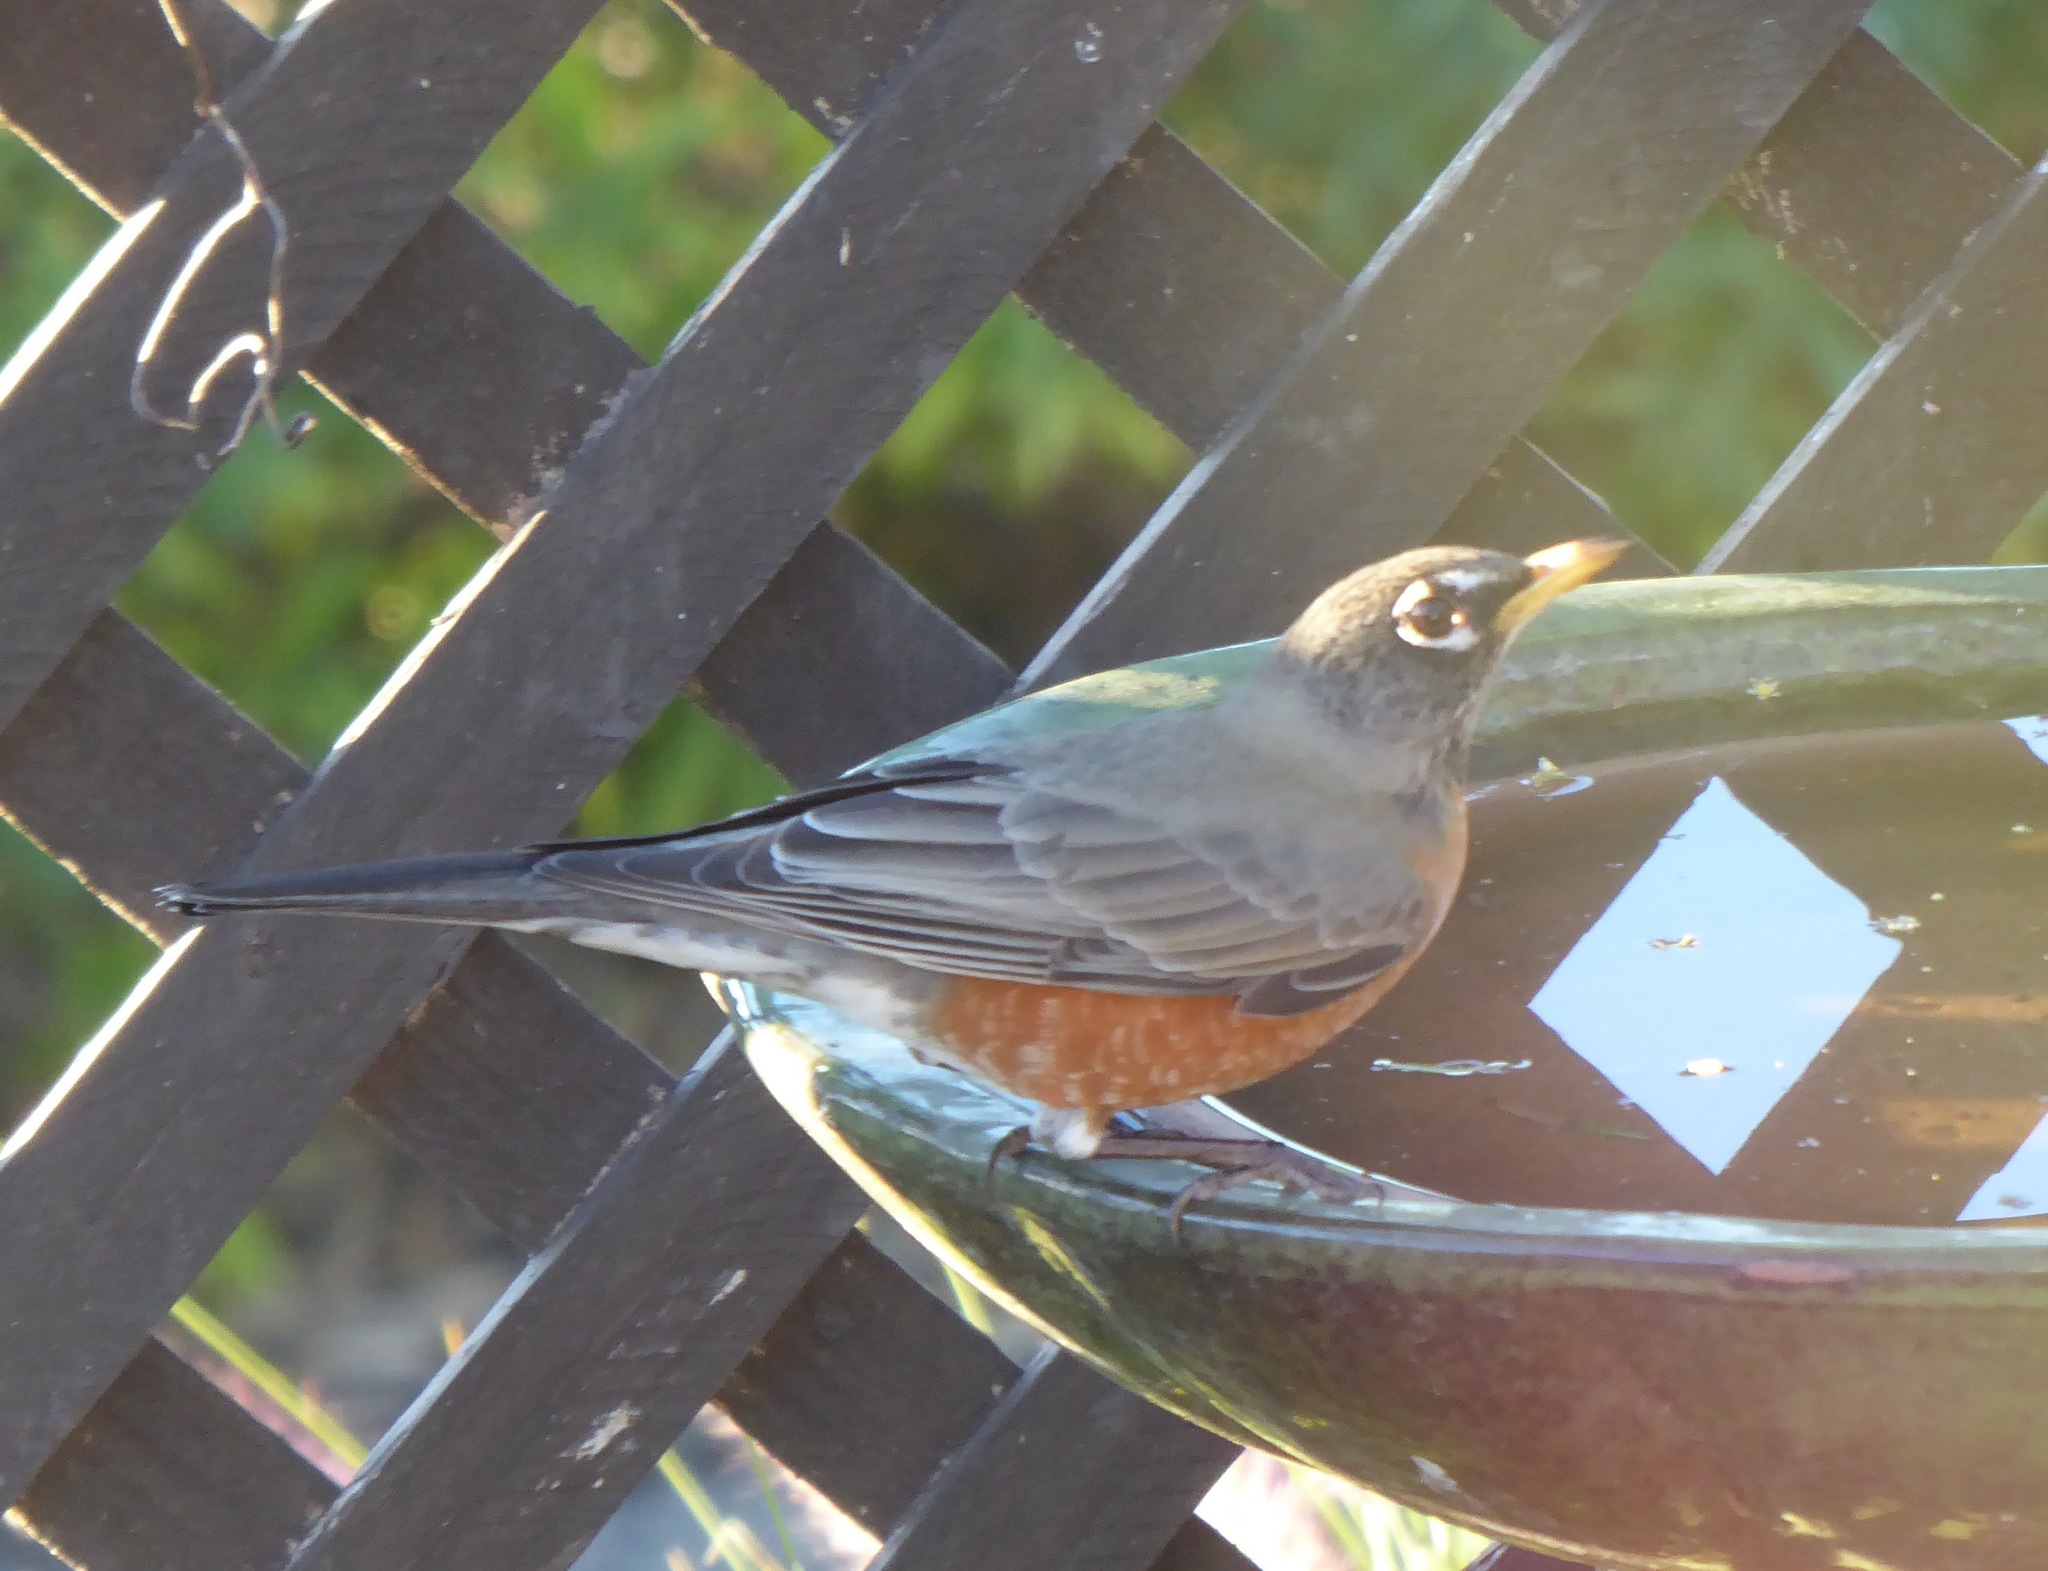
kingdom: Animalia
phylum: Chordata
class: Aves
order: Passeriformes
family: Turdidae
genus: Turdus
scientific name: Turdus migratorius
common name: American robin
